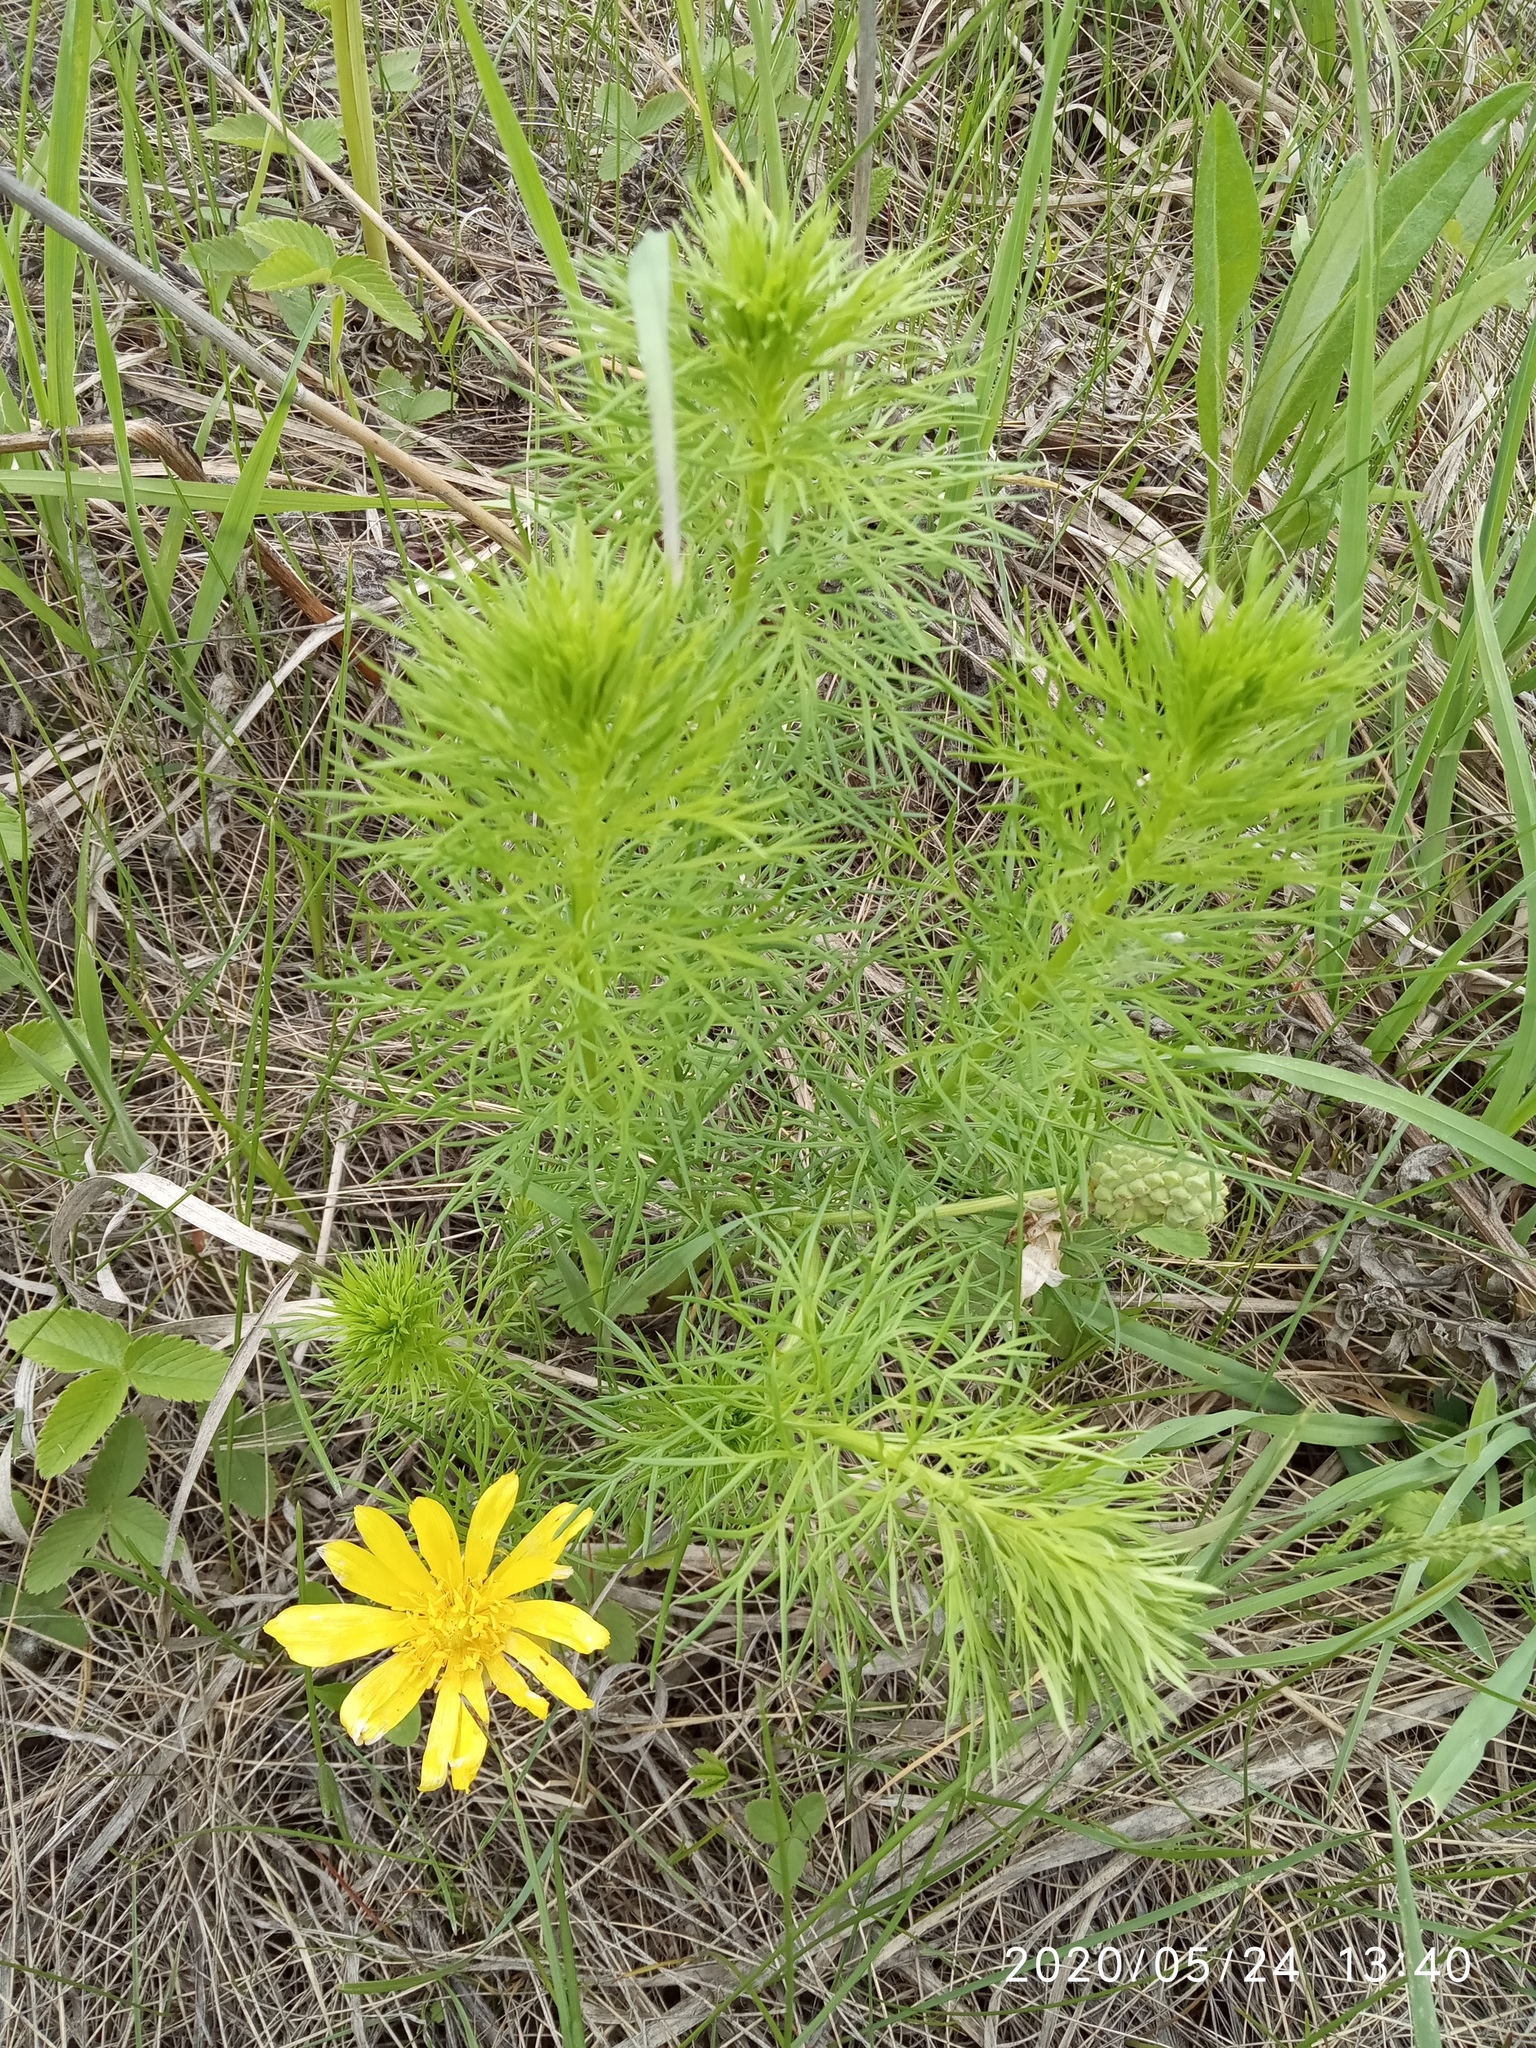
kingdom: Plantae
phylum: Tracheophyta
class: Magnoliopsida
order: Ranunculales
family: Ranunculaceae
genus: Adonis
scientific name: Adonis vernalis
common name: Yellow pheasants-eye
